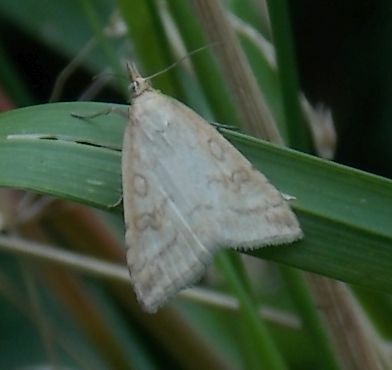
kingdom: Animalia
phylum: Arthropoda
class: Insecta
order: Lepidoptera
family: Crambidae
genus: Udea
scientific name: Udea lutealis
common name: Pale straw pearl
